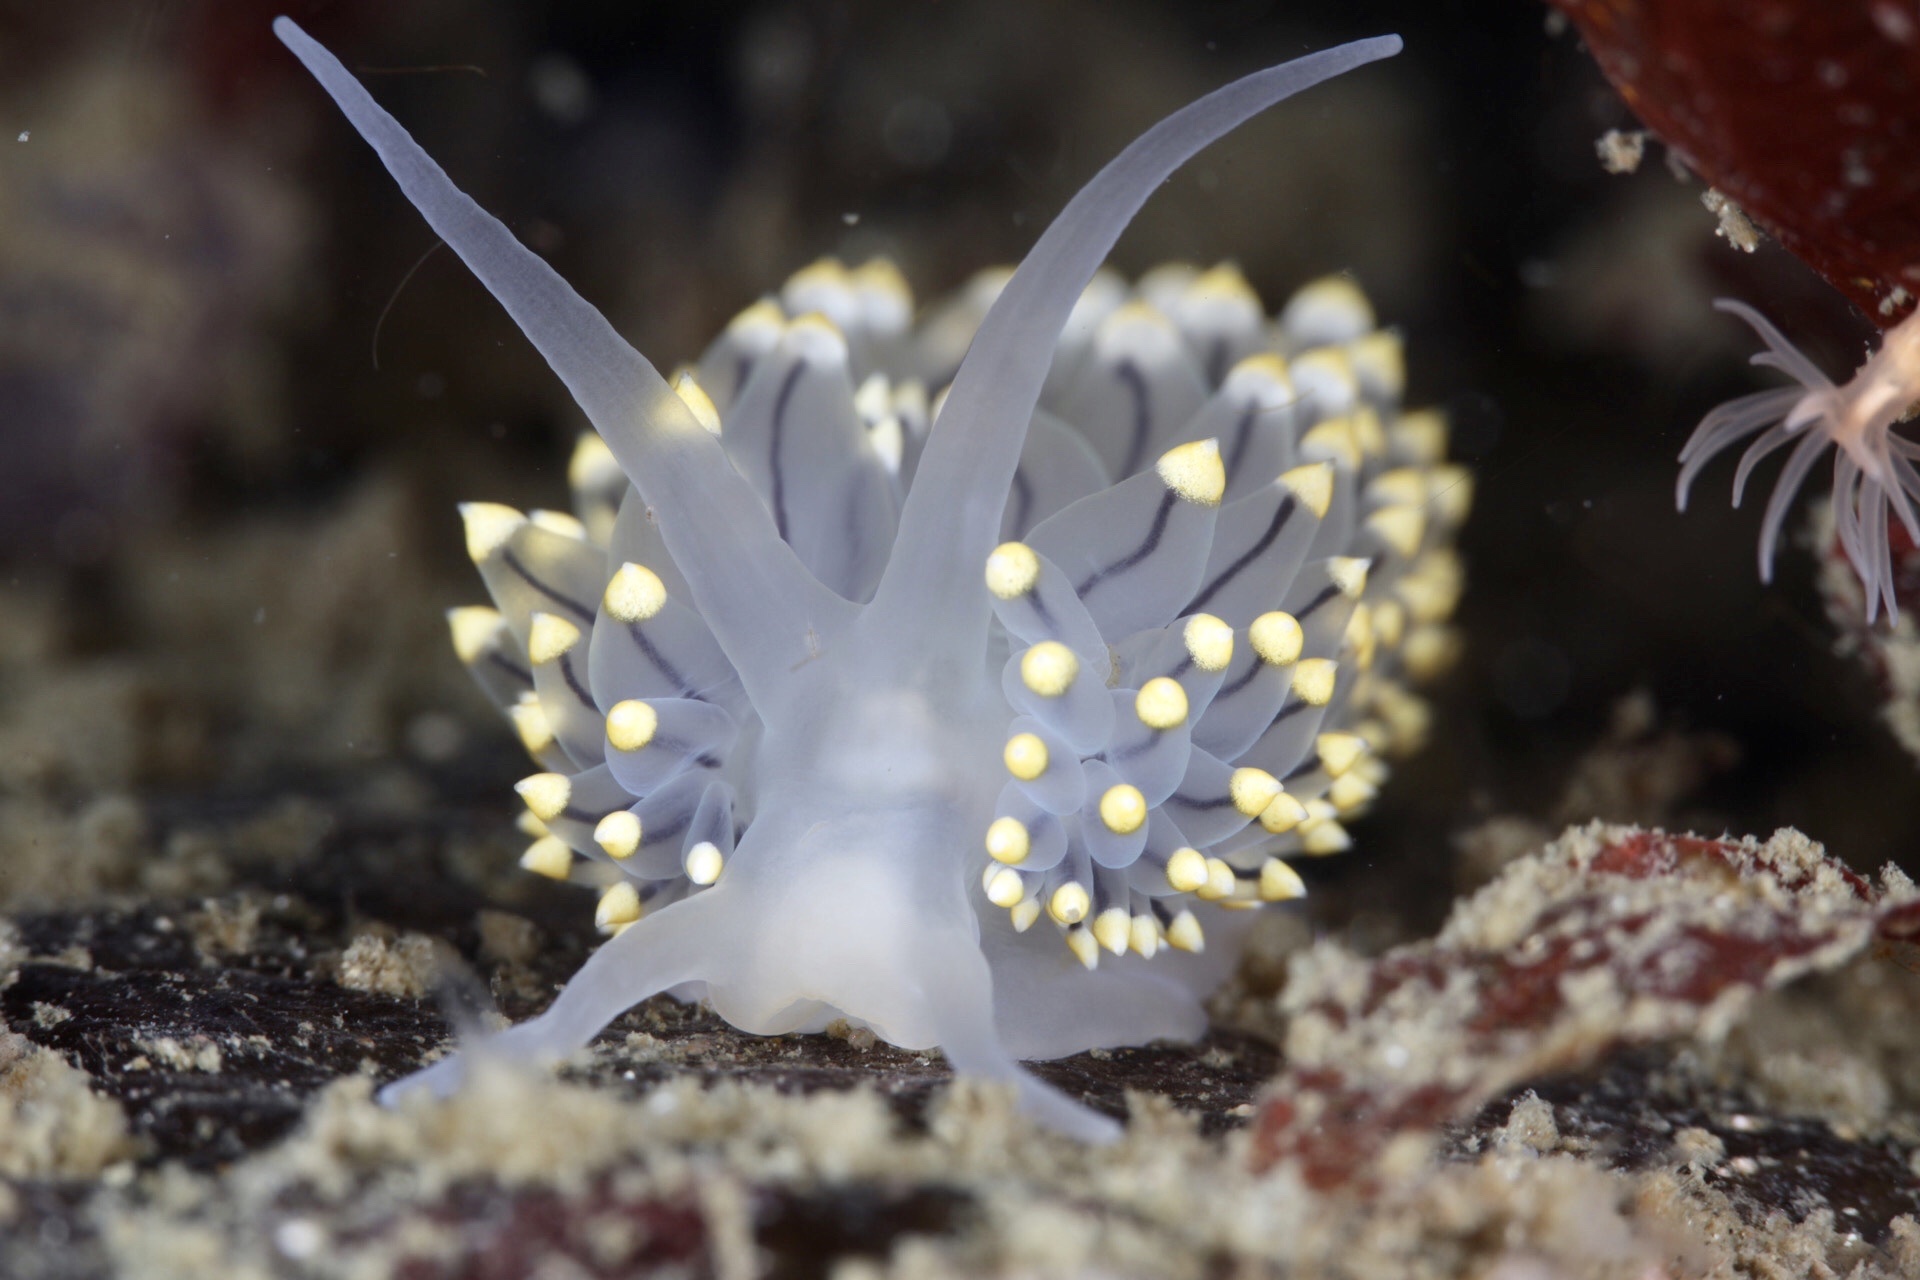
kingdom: Animalia
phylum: Mollusca
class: Gastropoda
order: Nudibranchia
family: Eubranchidae
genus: Eubranchus
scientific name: Eubranchus tricolor
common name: Painted balloon aeolis
